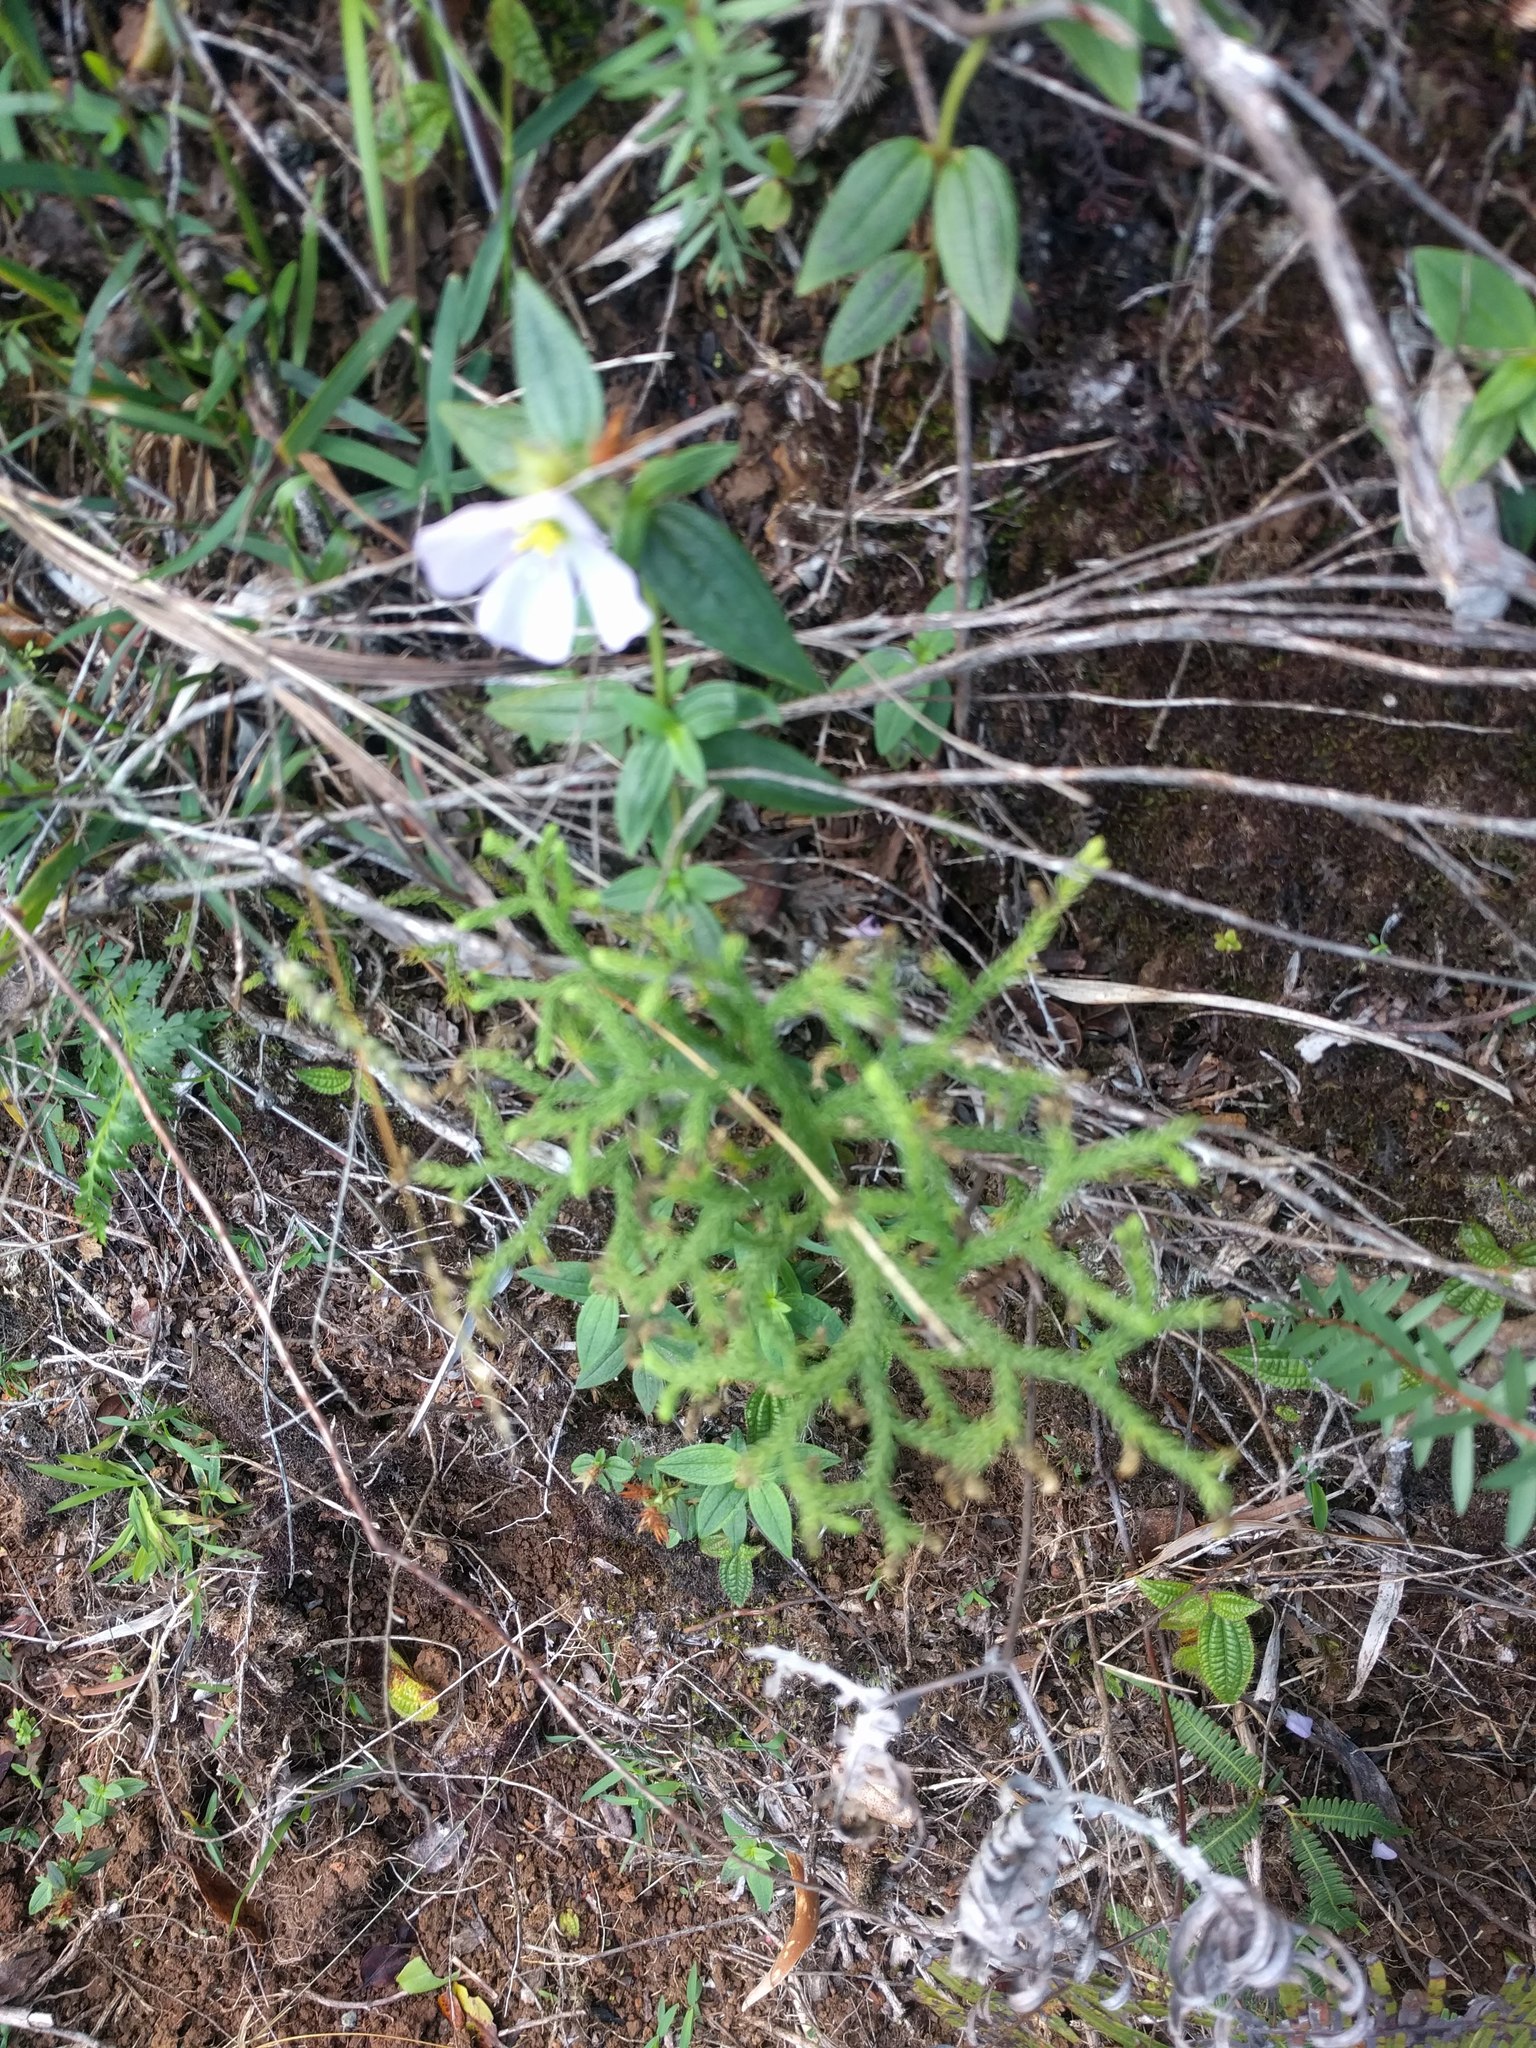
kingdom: Plantae
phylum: Tracheophyta
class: Magnoliopsida
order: Myrtales
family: Melastomataceae
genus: Pterolepis
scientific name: Pterolepis glomerata
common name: False meadowbeauty
